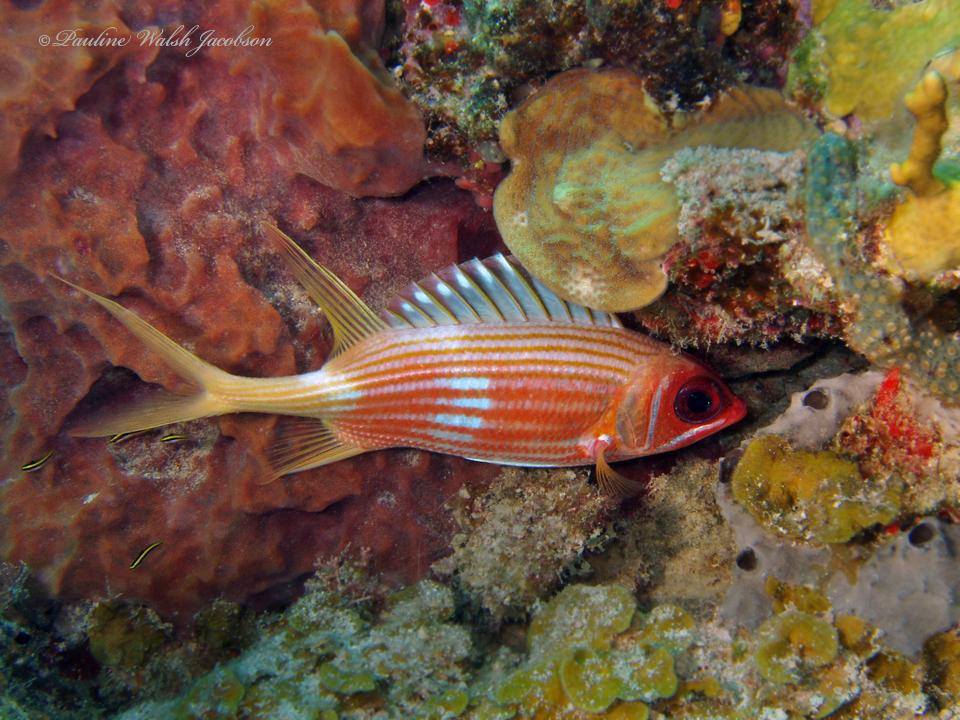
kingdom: Animalia
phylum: Chordata
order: Beryciformes
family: Holocentridae
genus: Holocentrus
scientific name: Holocentrus rufus
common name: Longspine squirrelfish
